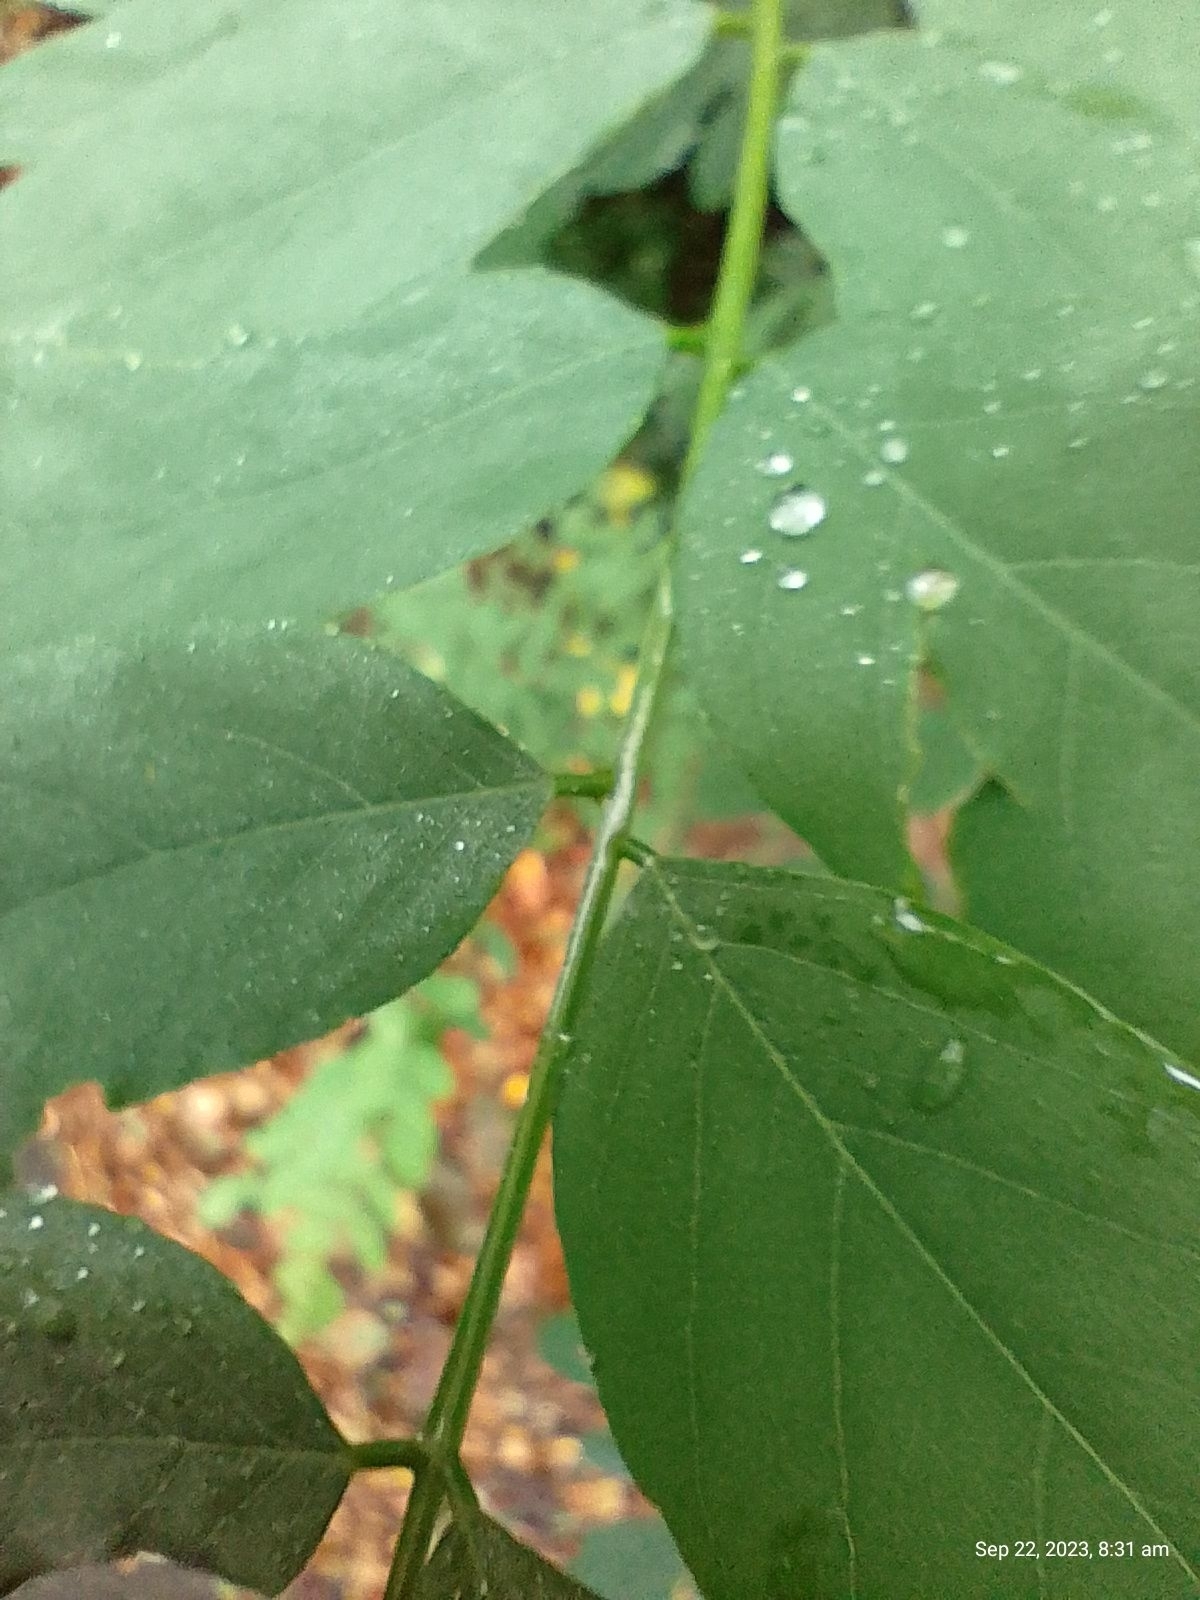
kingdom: Plantae
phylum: Tracheophyta
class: Magnoliopsida
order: Fabales
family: Fabaceae
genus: Robinia
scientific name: Robinia pseudoacacia
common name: Black locust
